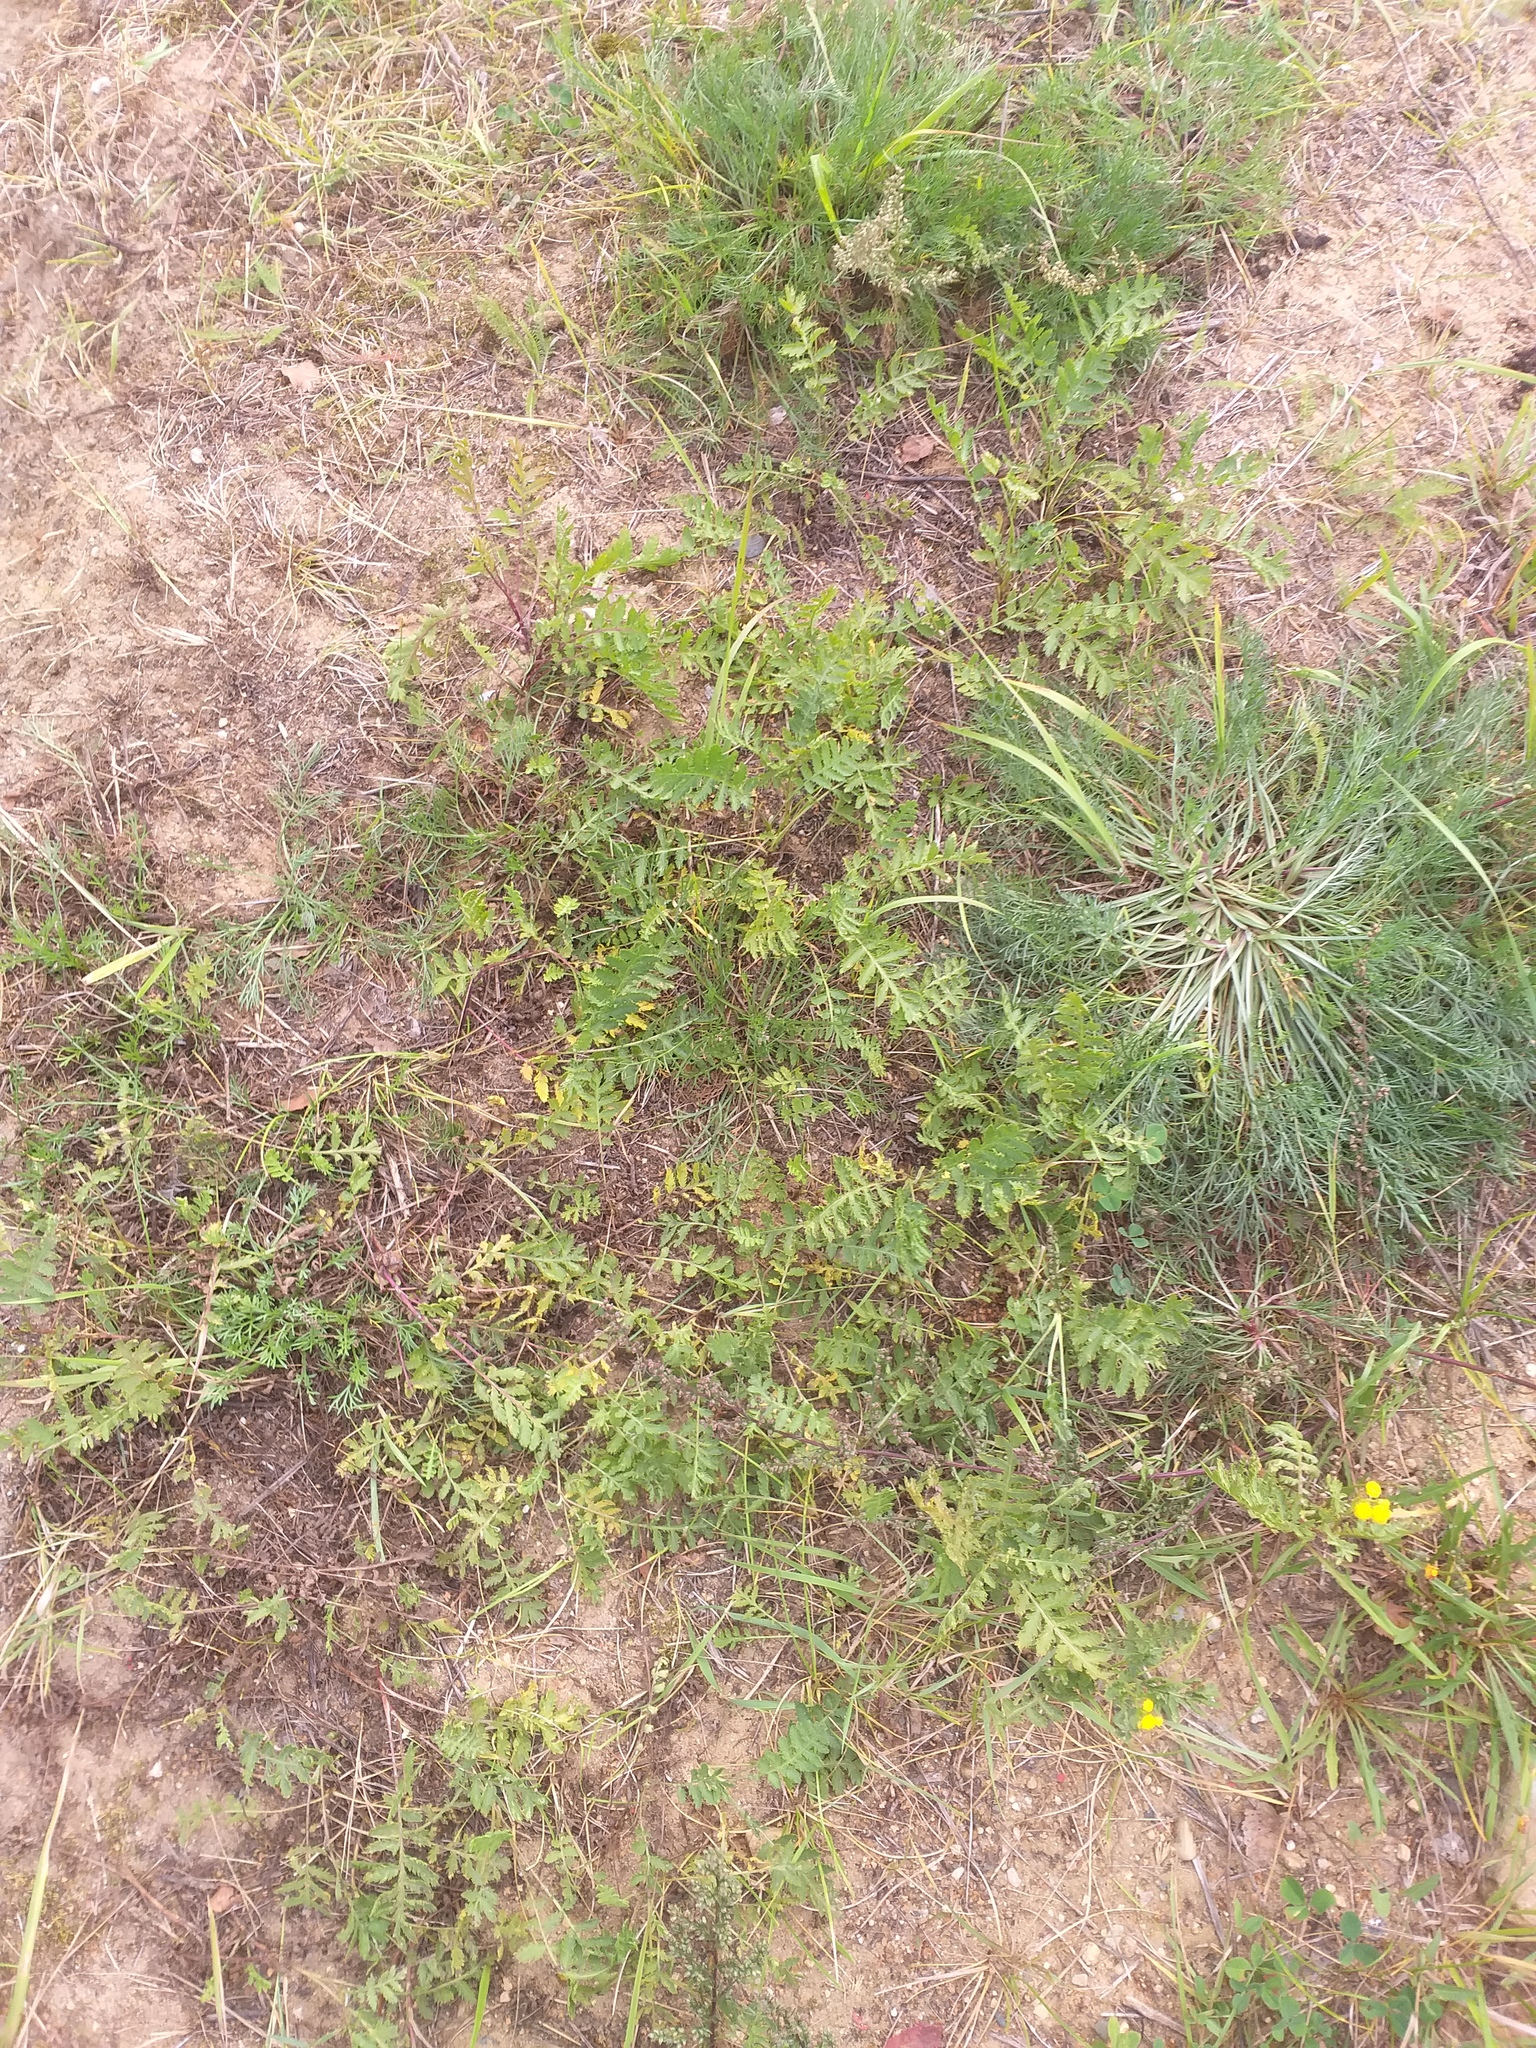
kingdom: Plantae
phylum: Tracheophyta
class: Magnoliopsida
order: Asterales
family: Asteraceae
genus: Tanacetum
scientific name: Tanacetum vulgare
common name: Common tansy
